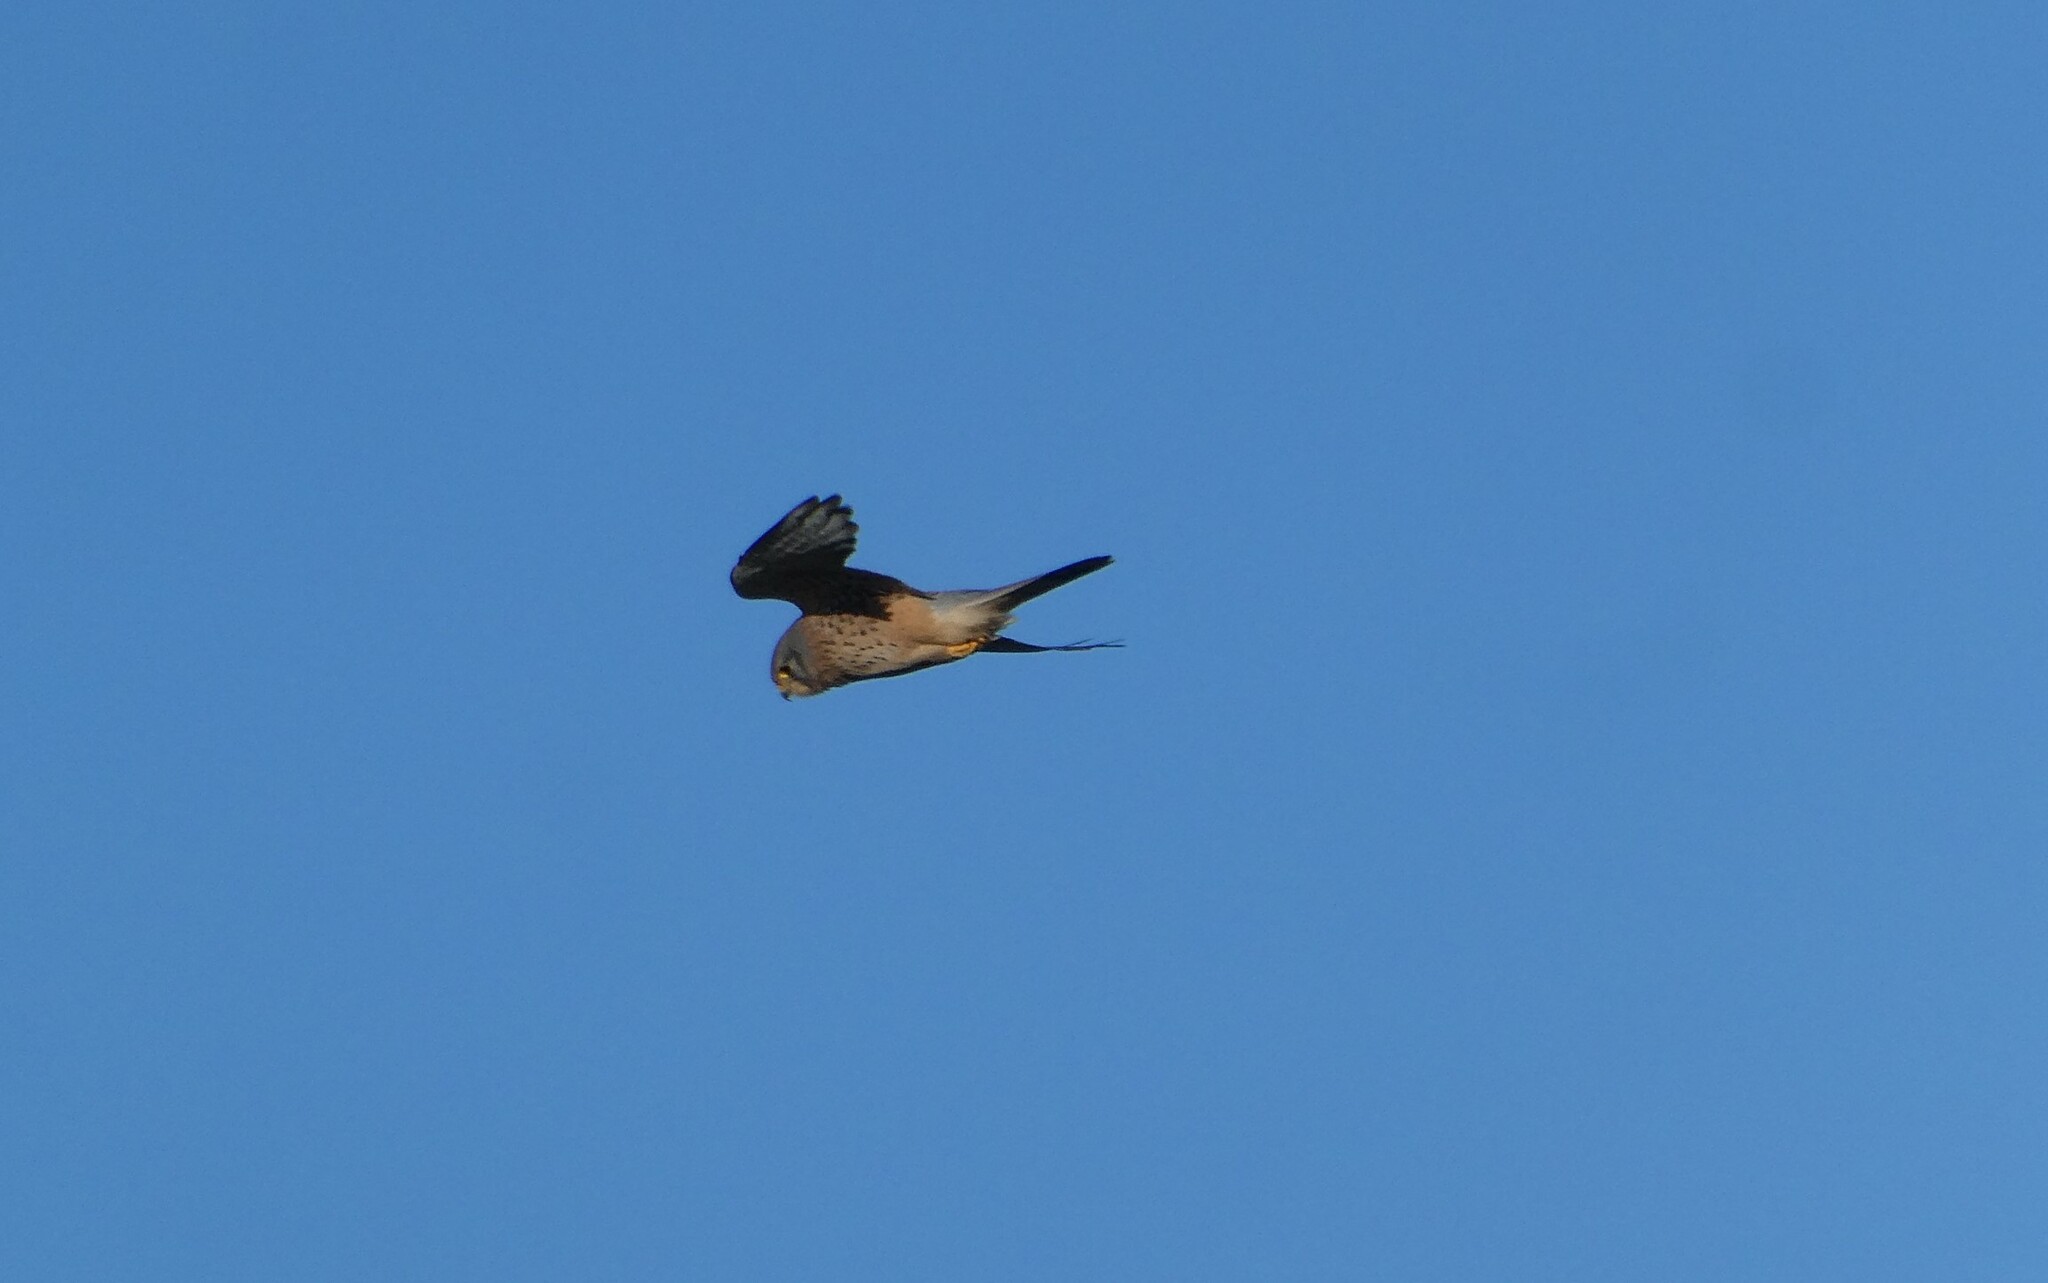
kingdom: Animalia
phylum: Chordata
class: Aves
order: Falconiformes
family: Falconidae
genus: Falco
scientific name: Falco tinnunculus
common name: Common kestrel
